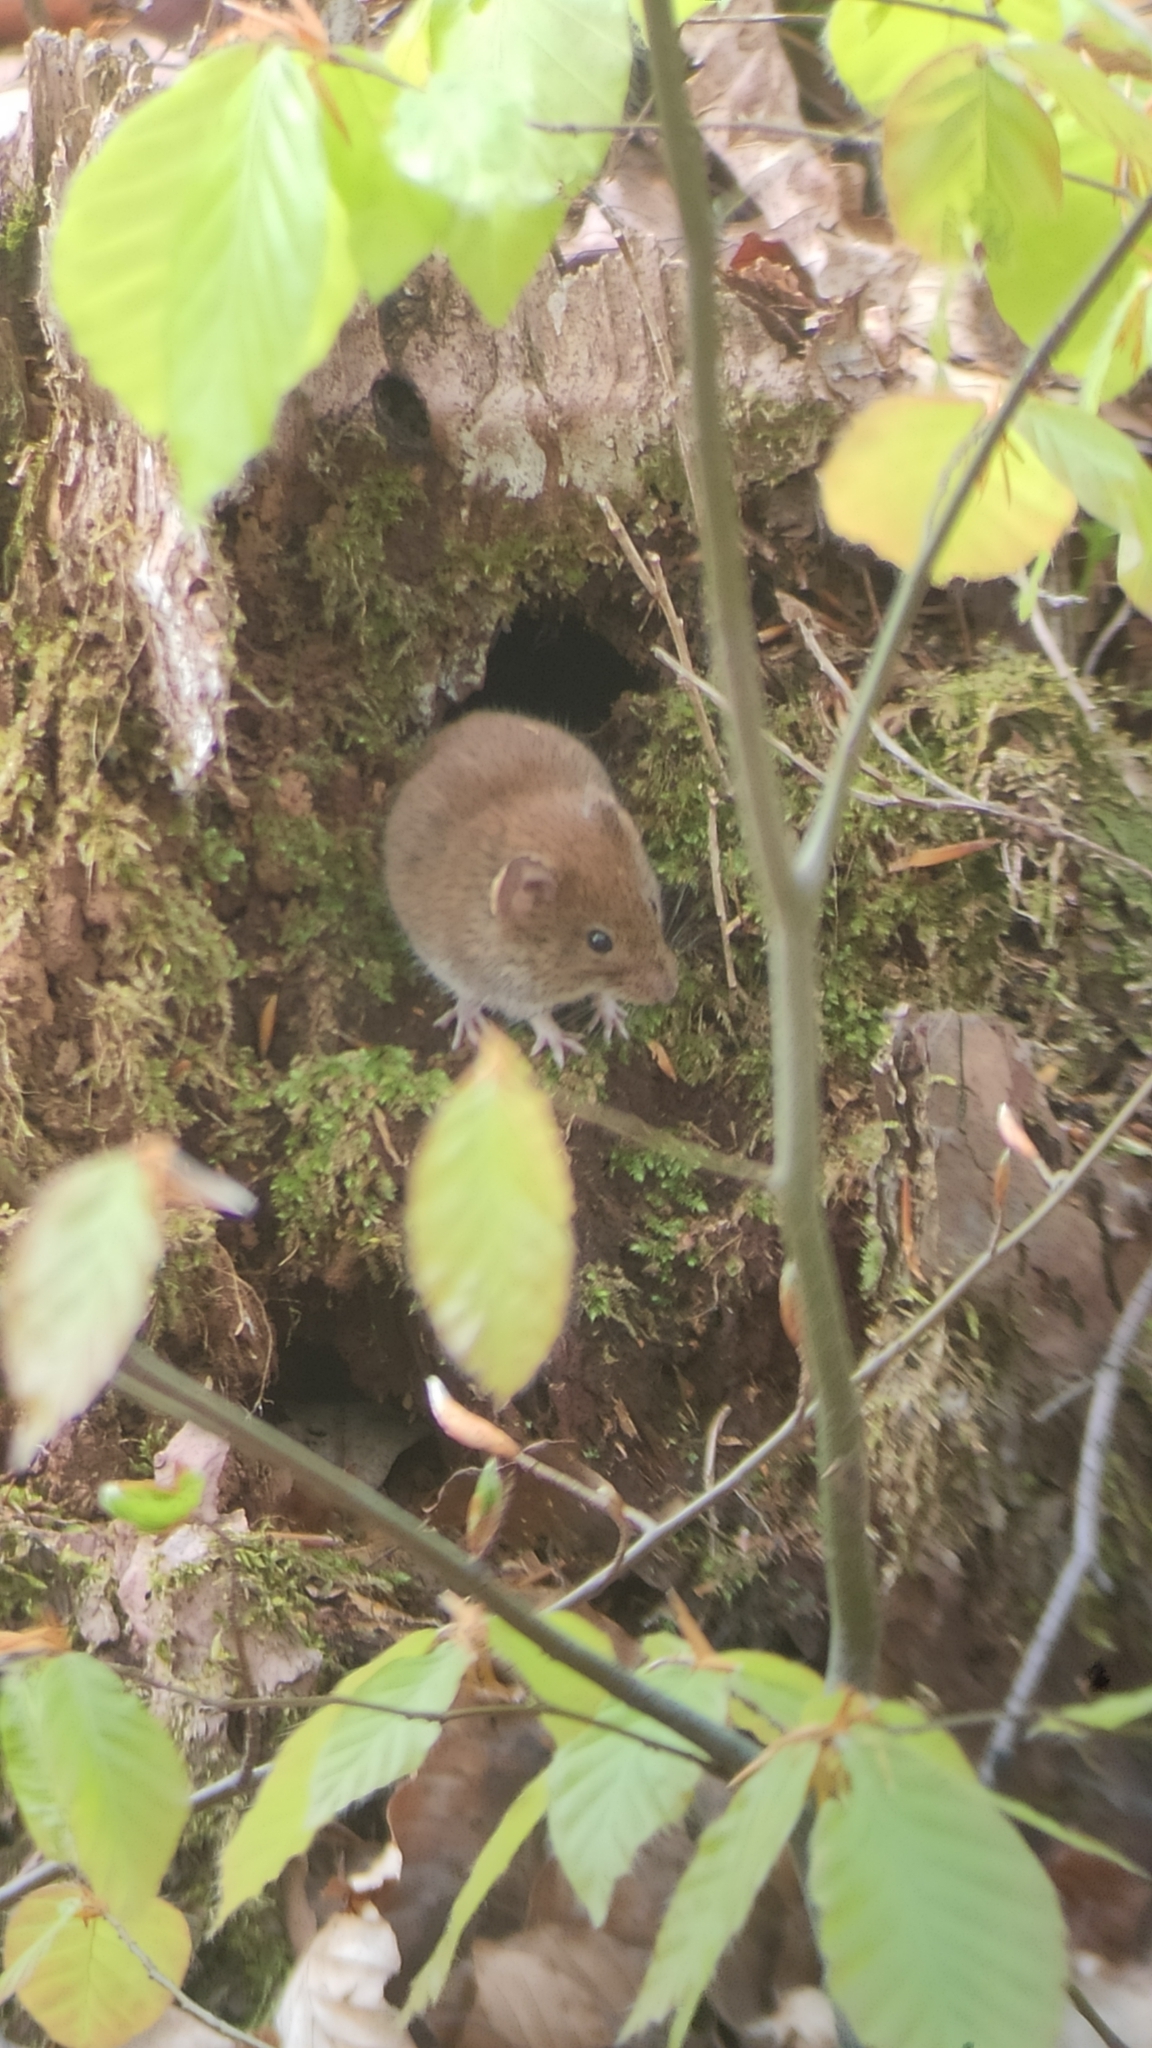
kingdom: Animalia
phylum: Chordata
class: Mammalia
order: Rodentia
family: Cricetidae
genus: Myodes
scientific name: Myodes glareolus
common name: Bank vole
